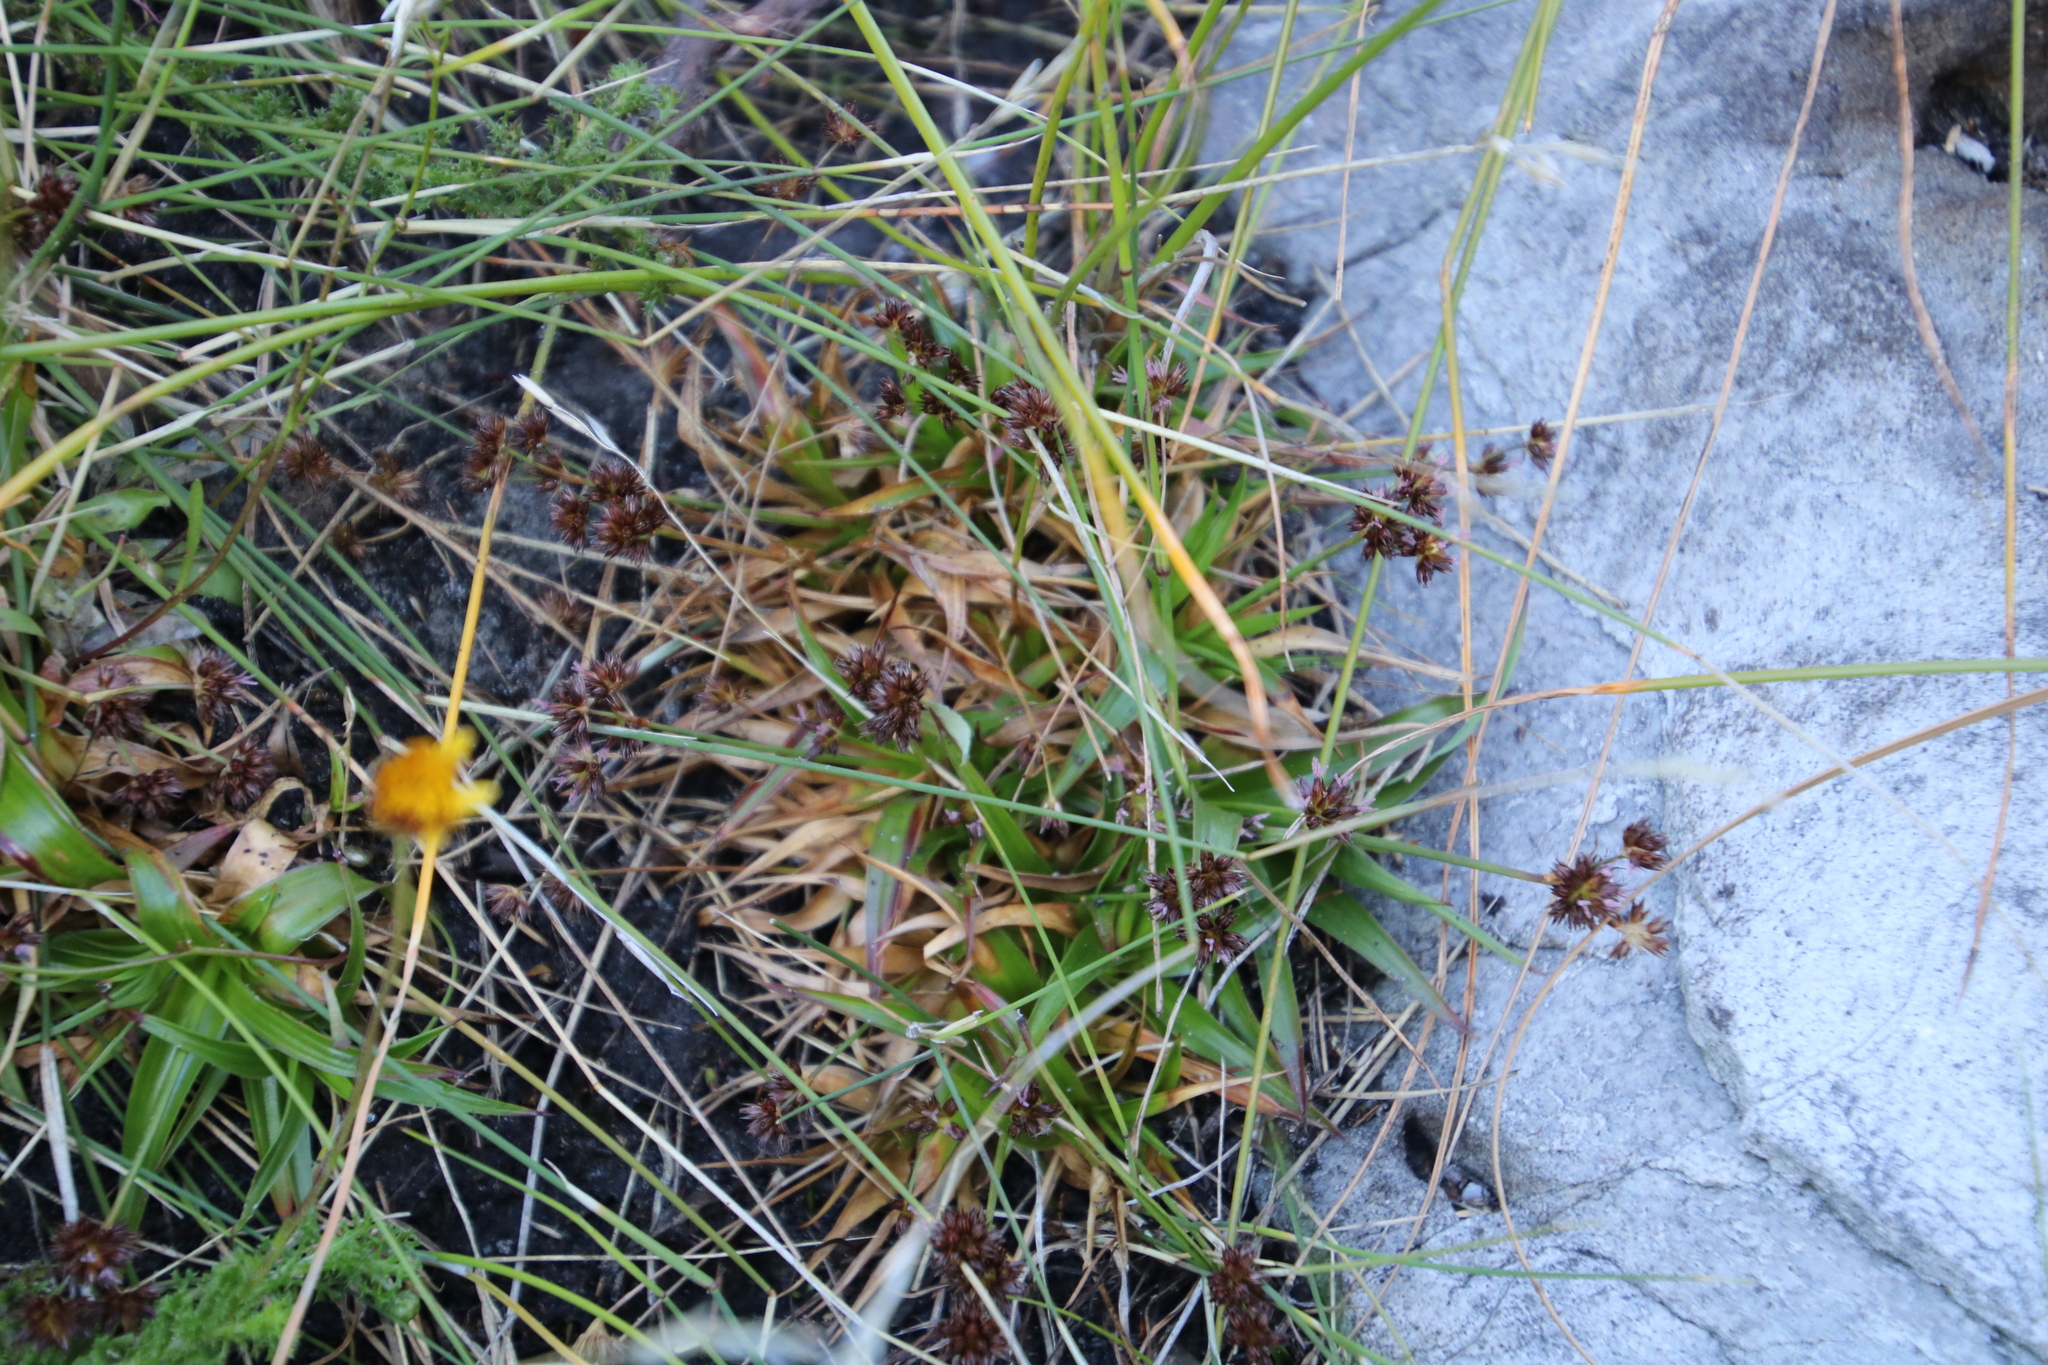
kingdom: Plantae
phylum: Tracheophyta
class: Liliopsida
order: Poales
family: Juncaceae
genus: Juncus
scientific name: Juncus lomatophyllus
